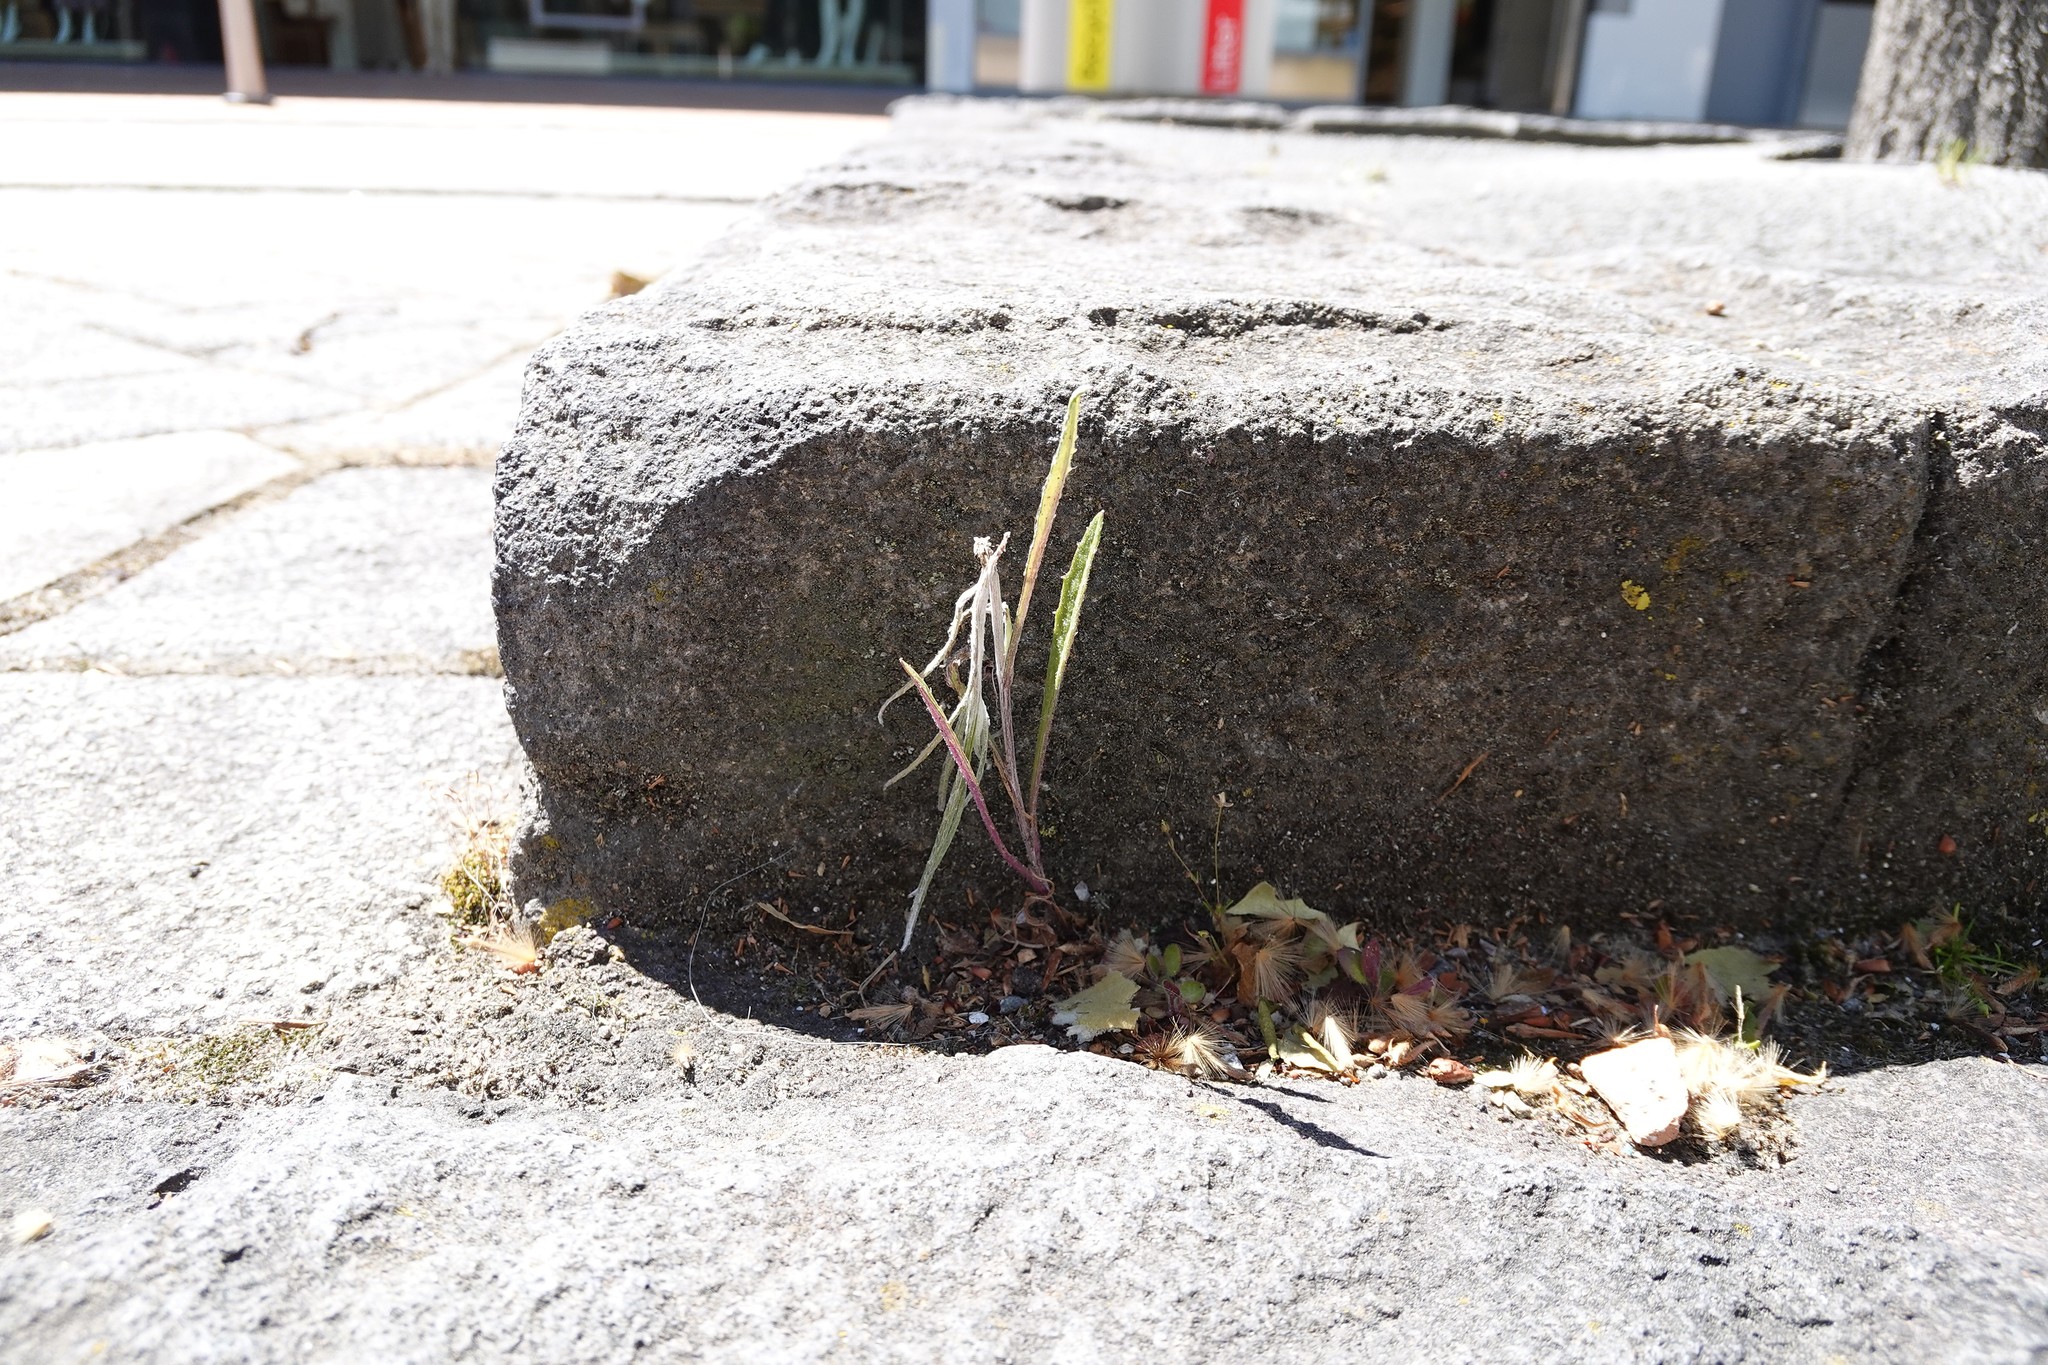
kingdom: Plantae
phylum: Tracheophyta
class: Magnoliopsida
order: Asterales
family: Asteraceae
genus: Senecio
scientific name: Senecio quadridentatus
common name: Cotton fireweed
